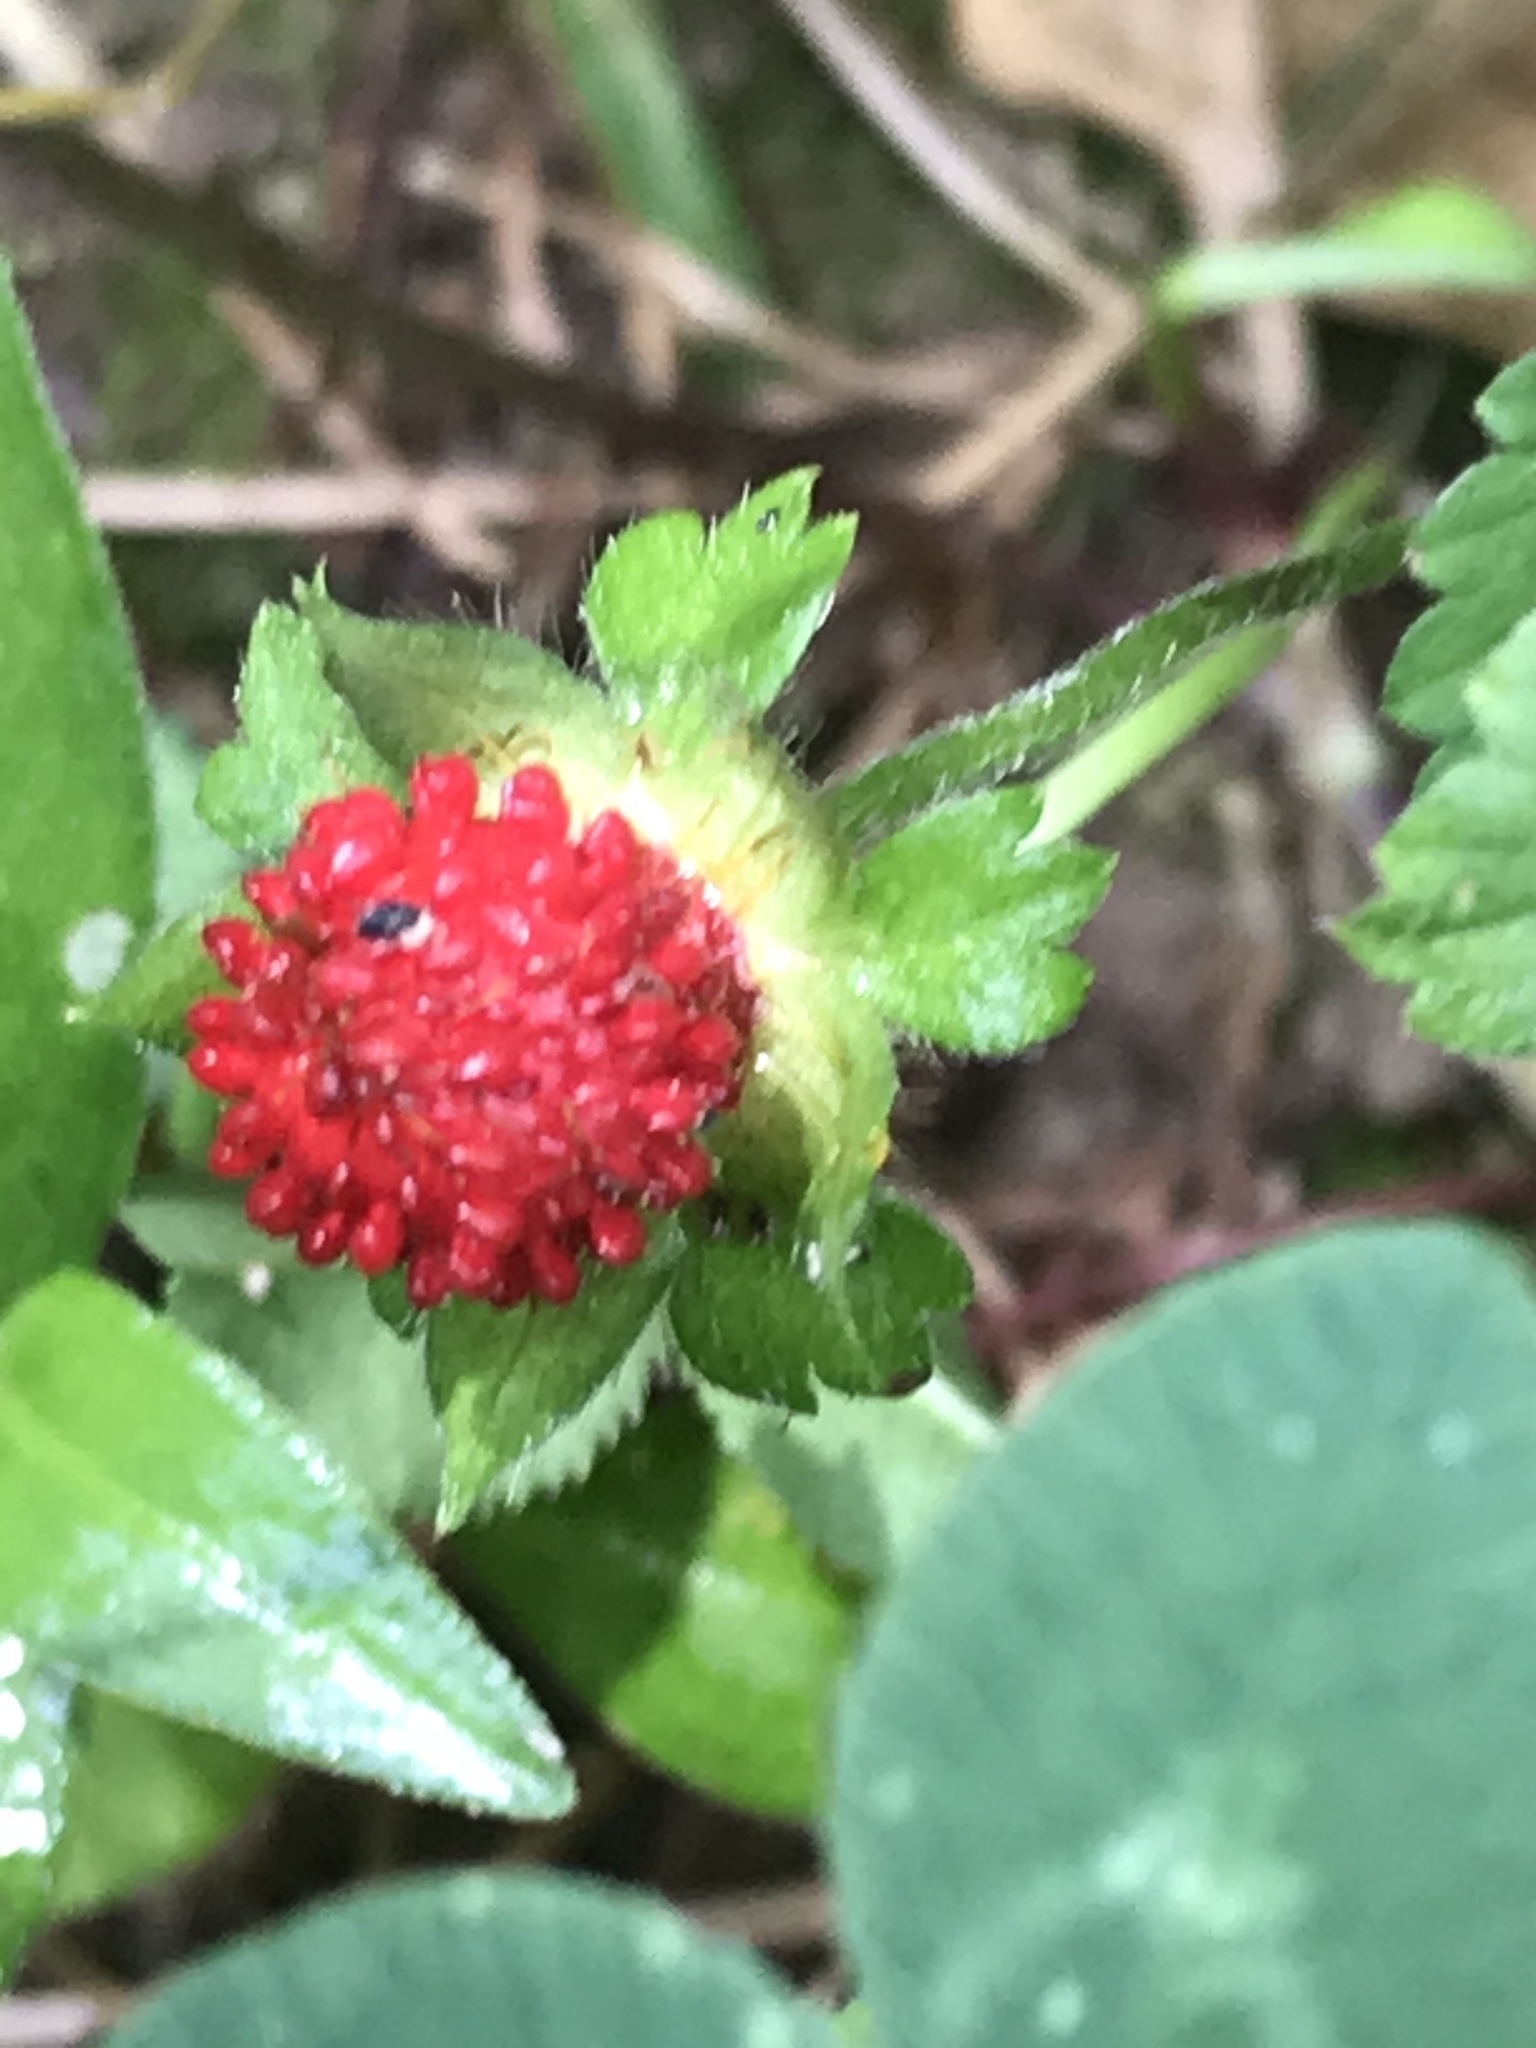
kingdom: Plantae
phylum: Tracheophyta
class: Magnoliopsida
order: Rosales
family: Rosaceae
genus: Potentilla
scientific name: Potentilla indica
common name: Yellow-flowered strawberry
